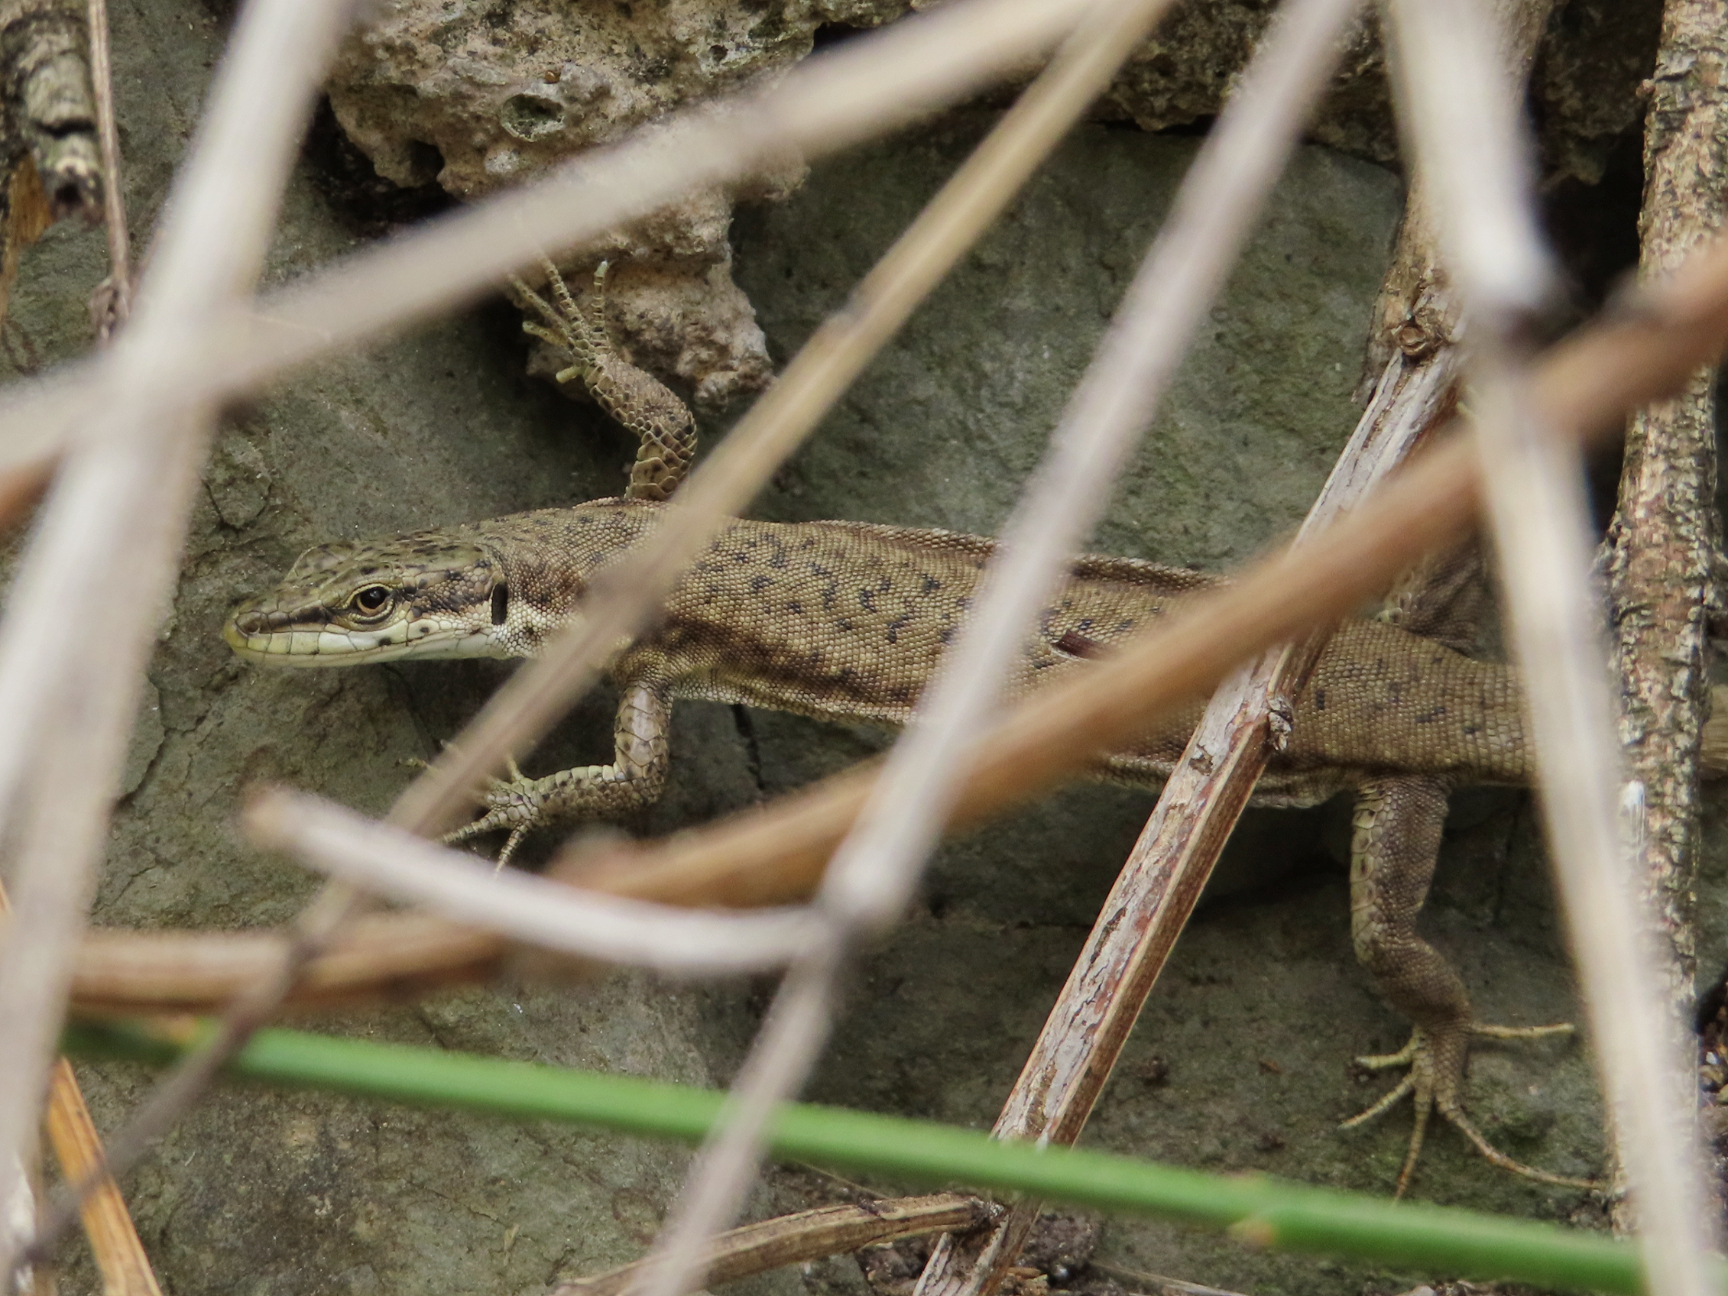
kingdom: Animalia
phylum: Chordata
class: Squamata
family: Lacertidae
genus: Darevskia
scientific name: Darevskia portschinskii
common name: River kura lizard
